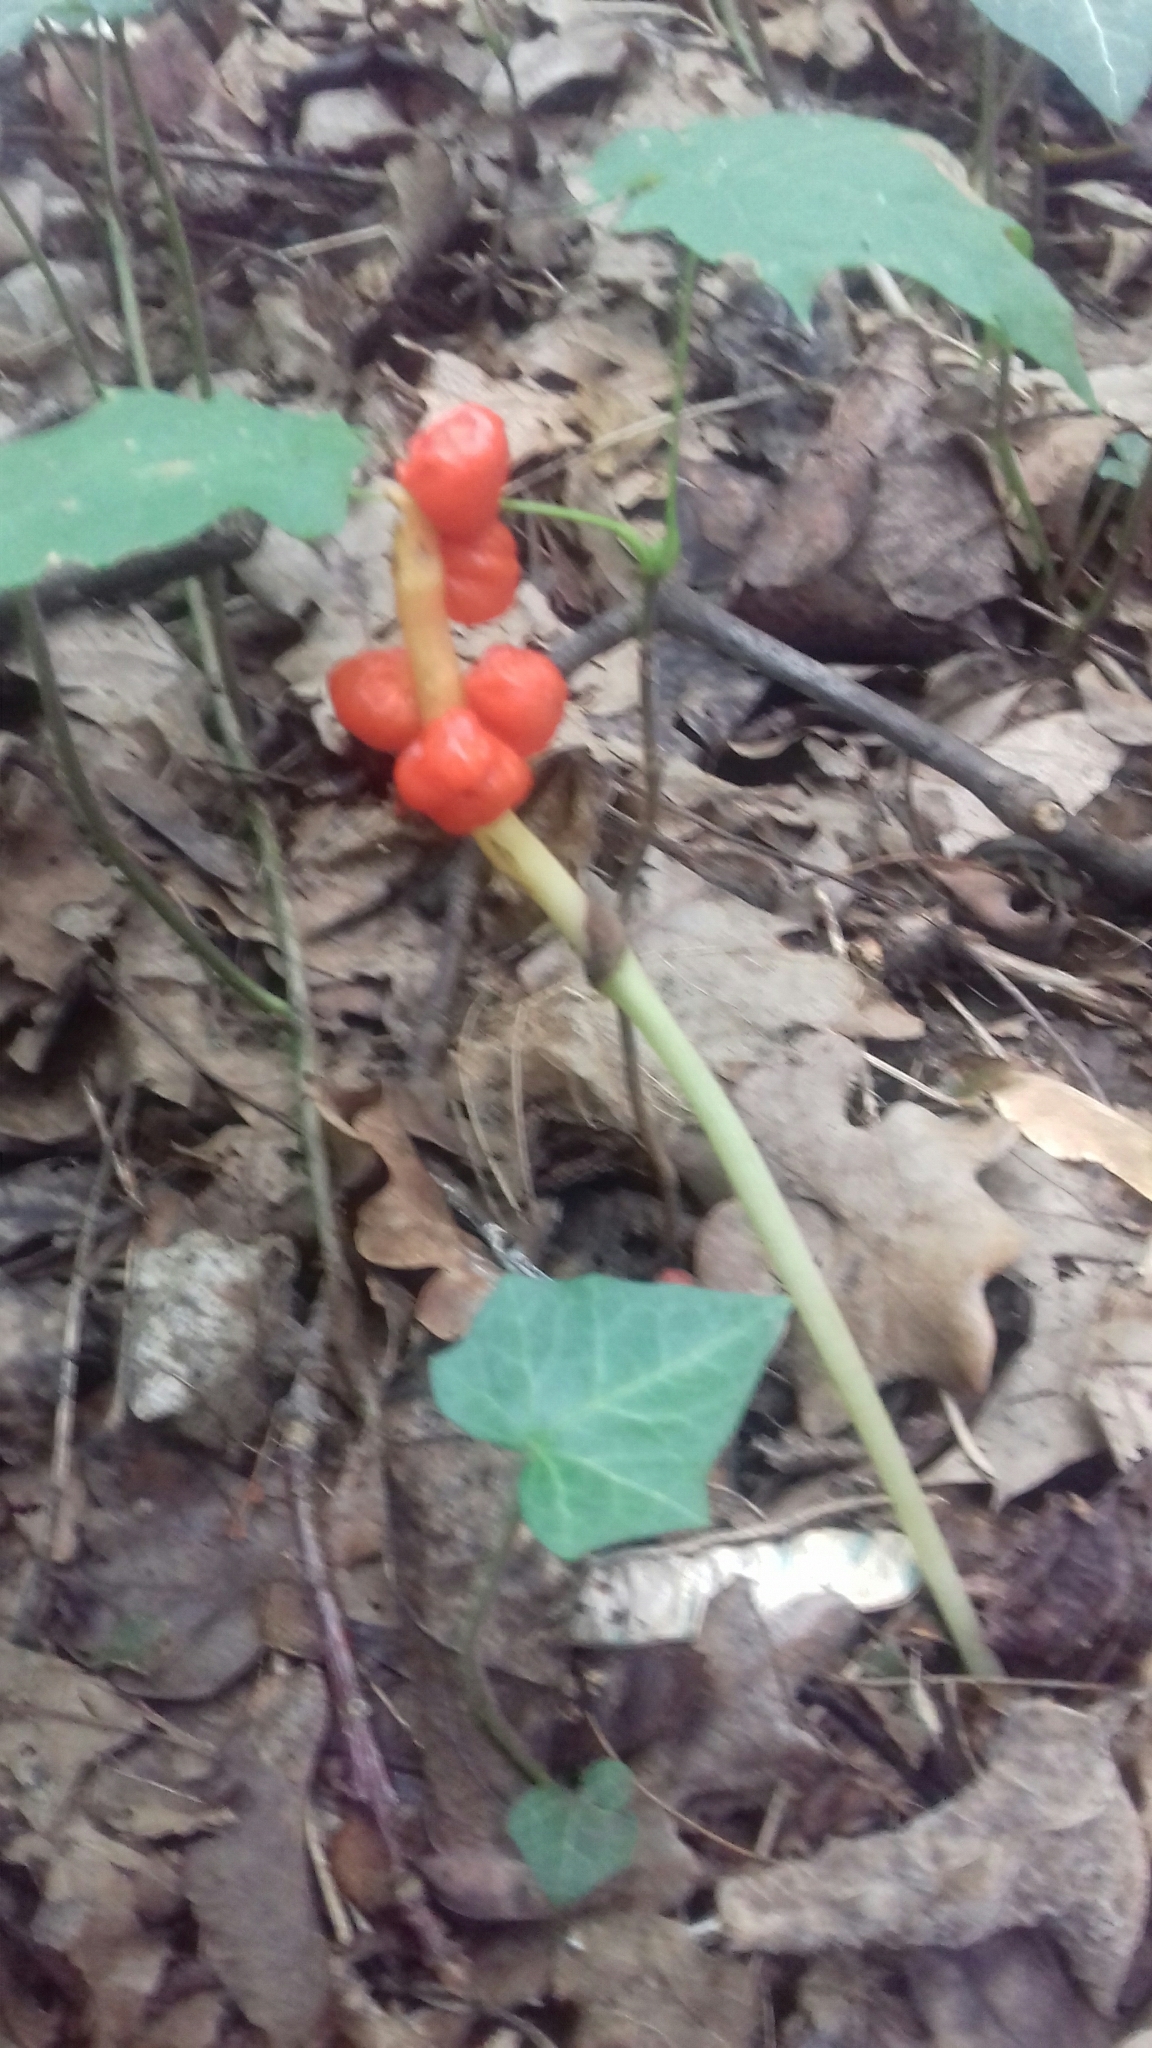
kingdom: Plantae
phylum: Tracheophyta
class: Liliopsida
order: Alismatales
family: Araceae
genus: Arum
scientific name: Arum maculatum
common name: Lords-and-ladies
